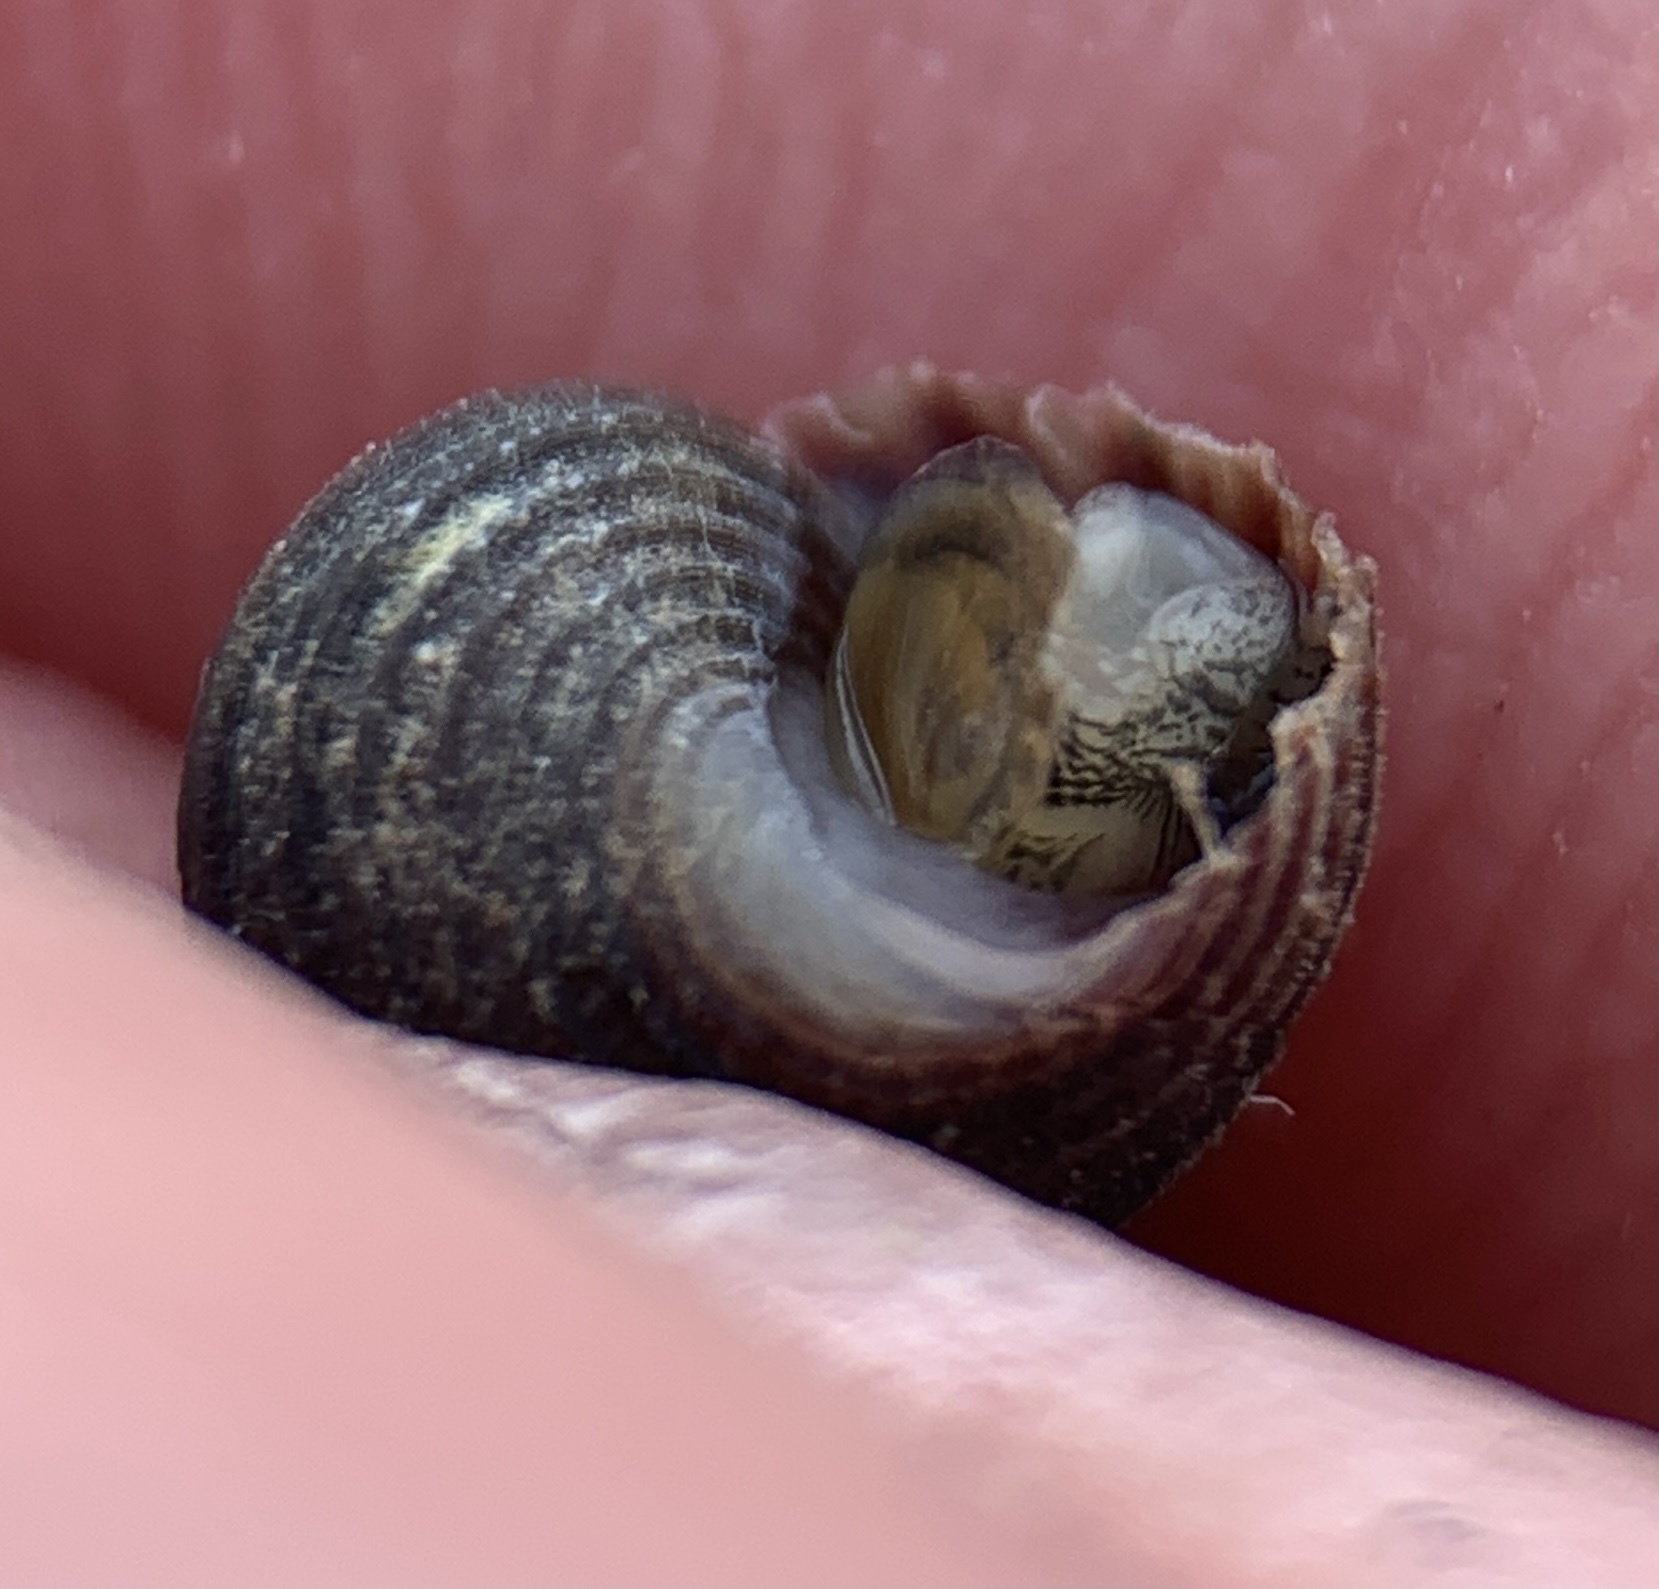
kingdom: Animalia
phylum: Mollusca
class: Gastropoda
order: Littorinimorpha
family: Littorinidae
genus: Littorina
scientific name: Littorina littorea
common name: Common periwinkle
